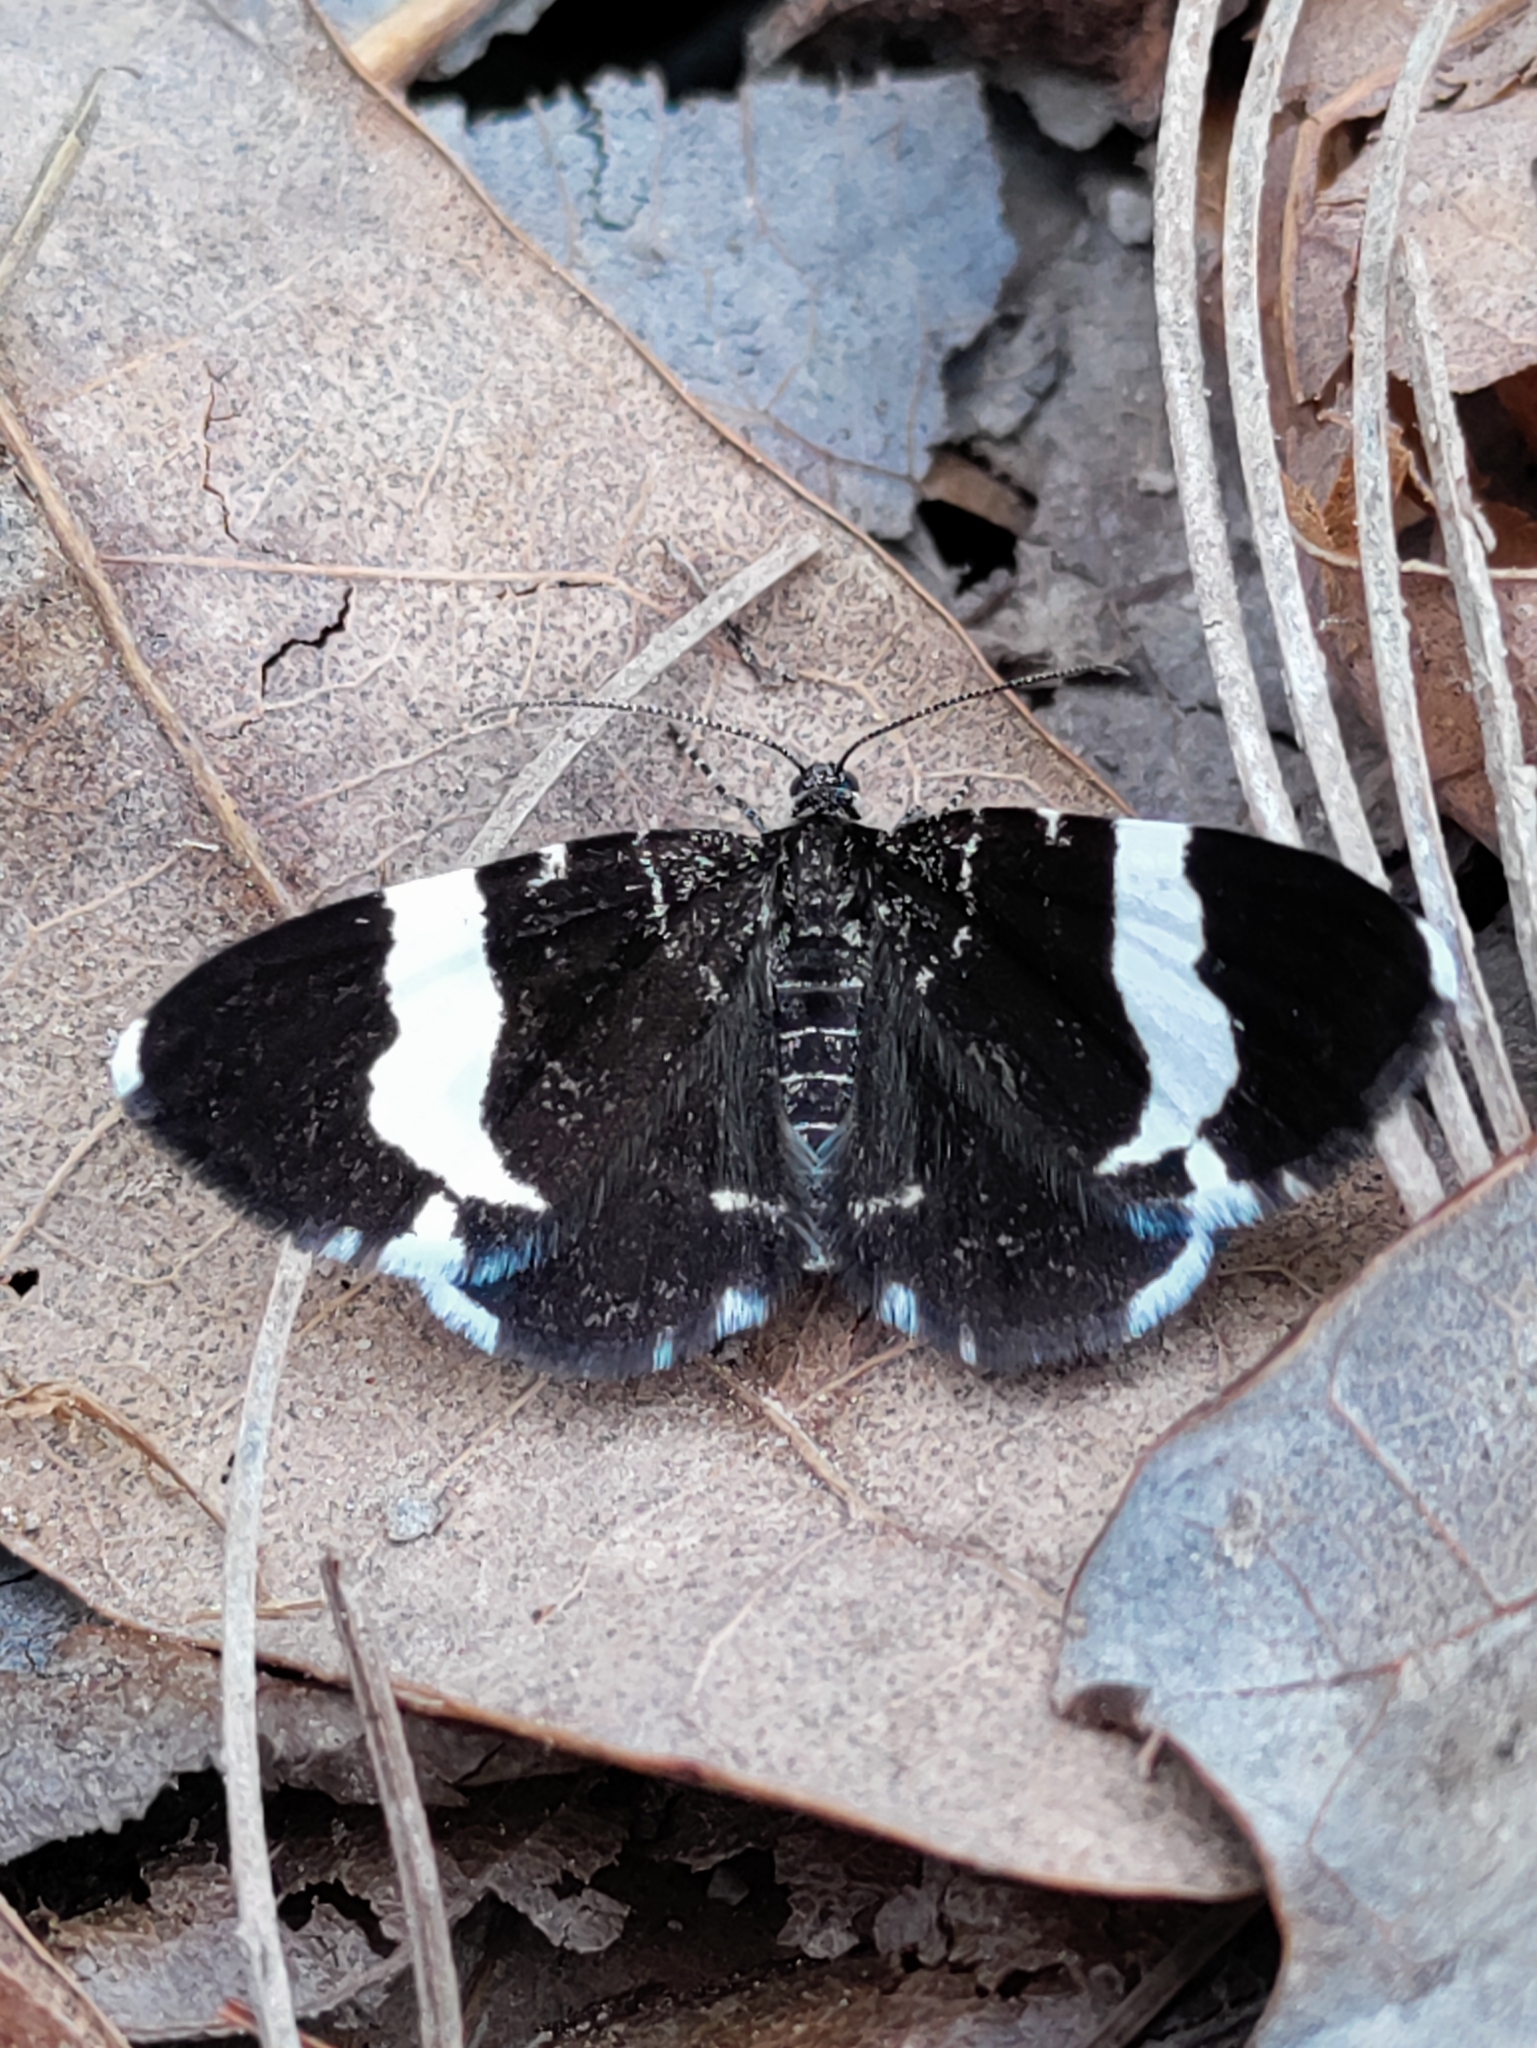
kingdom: Animalia
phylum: Arthropoda
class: Insecta
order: Lepidoptera
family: Geometridae
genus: Trichodezia
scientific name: Trichodezia albovittata
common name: White striped black
